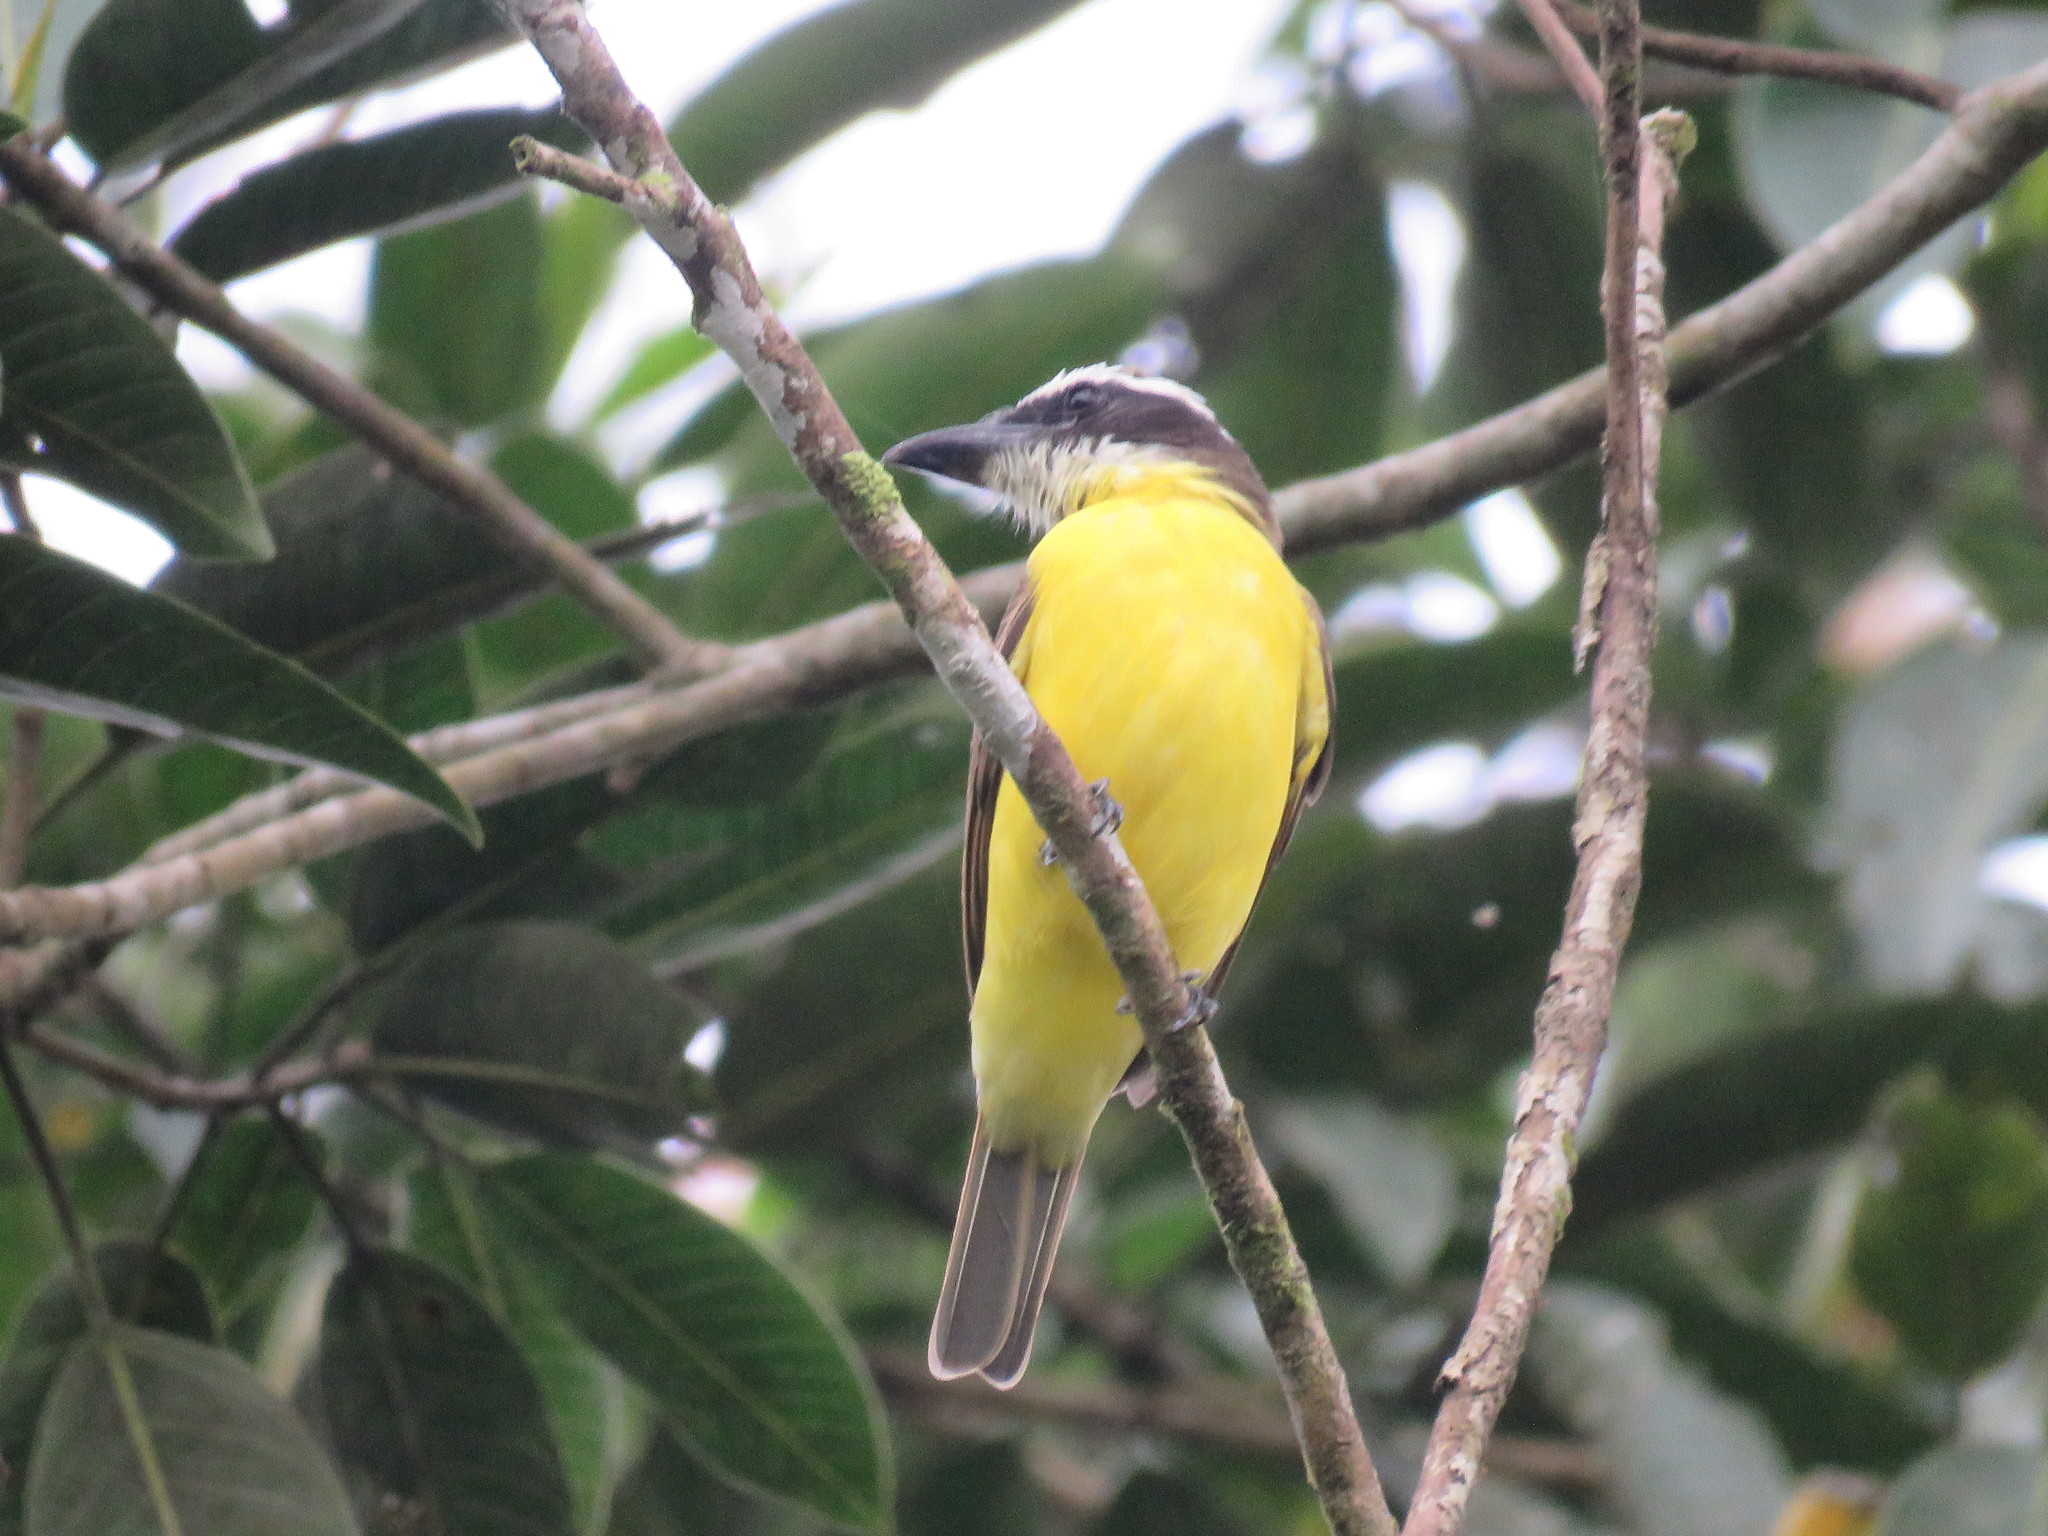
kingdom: Animalia
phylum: Chordata
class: Aves
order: Passeriformes
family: Tyrannidae
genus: Megarynchus
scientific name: Megarynchus pitangua
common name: Boat-billed flycatcher
